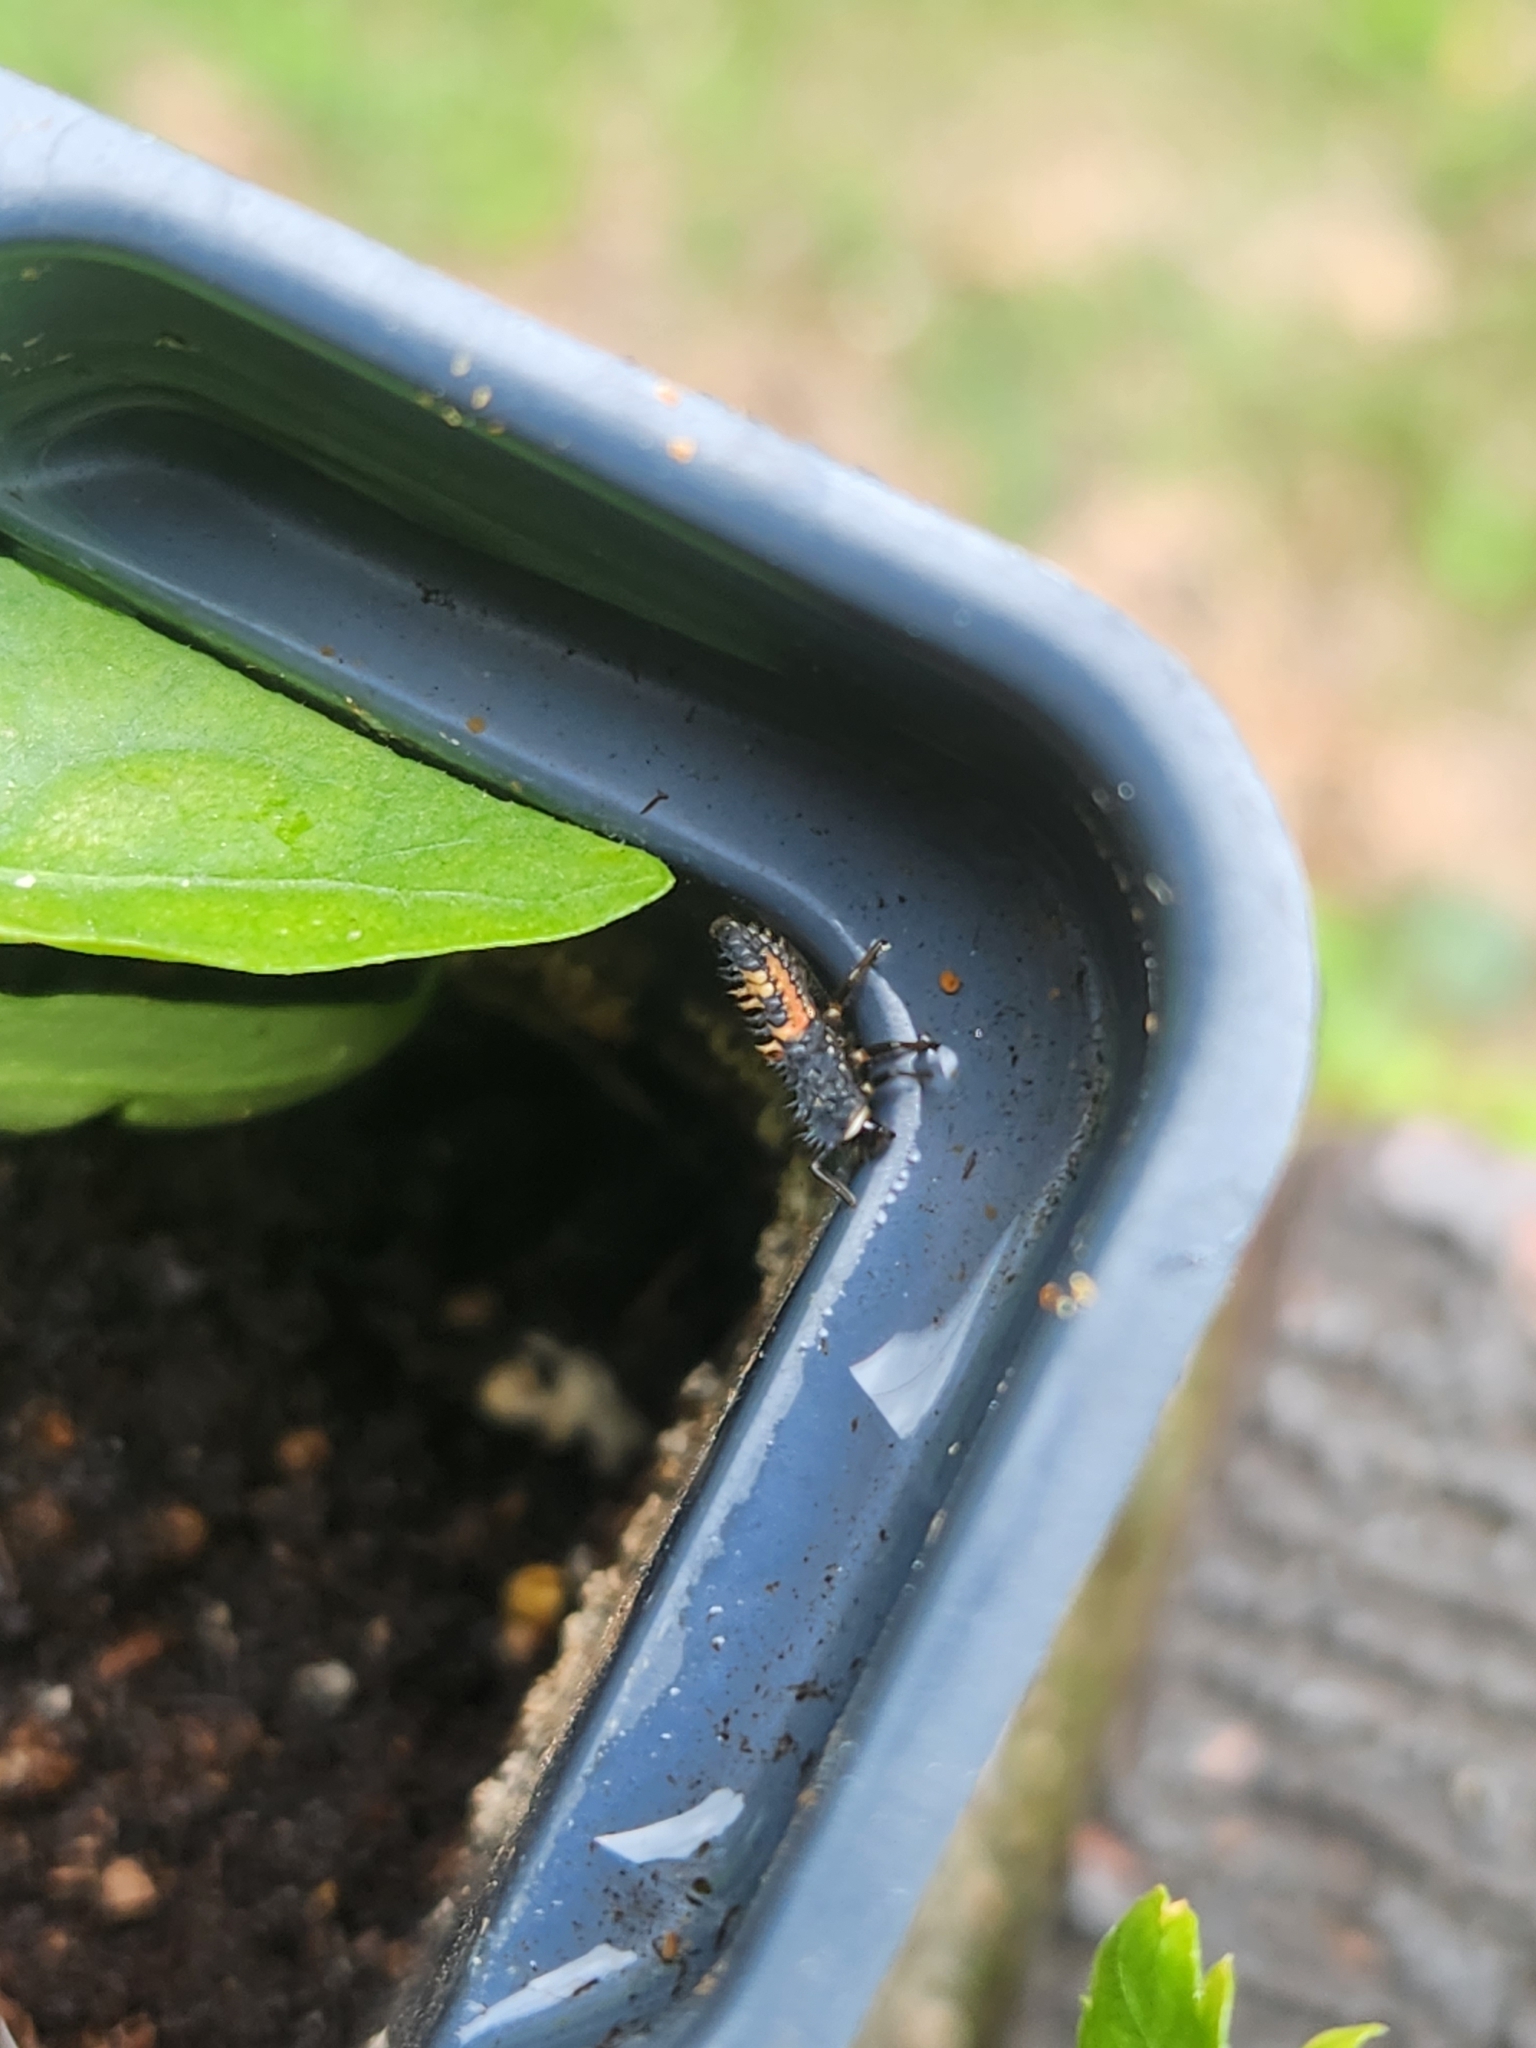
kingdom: Animalia
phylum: Arthropoda
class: Insecta
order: Coleoptera
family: Coccinellidae
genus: Harmonia
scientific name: Harmonia axyridis
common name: Harlequin ladybird
